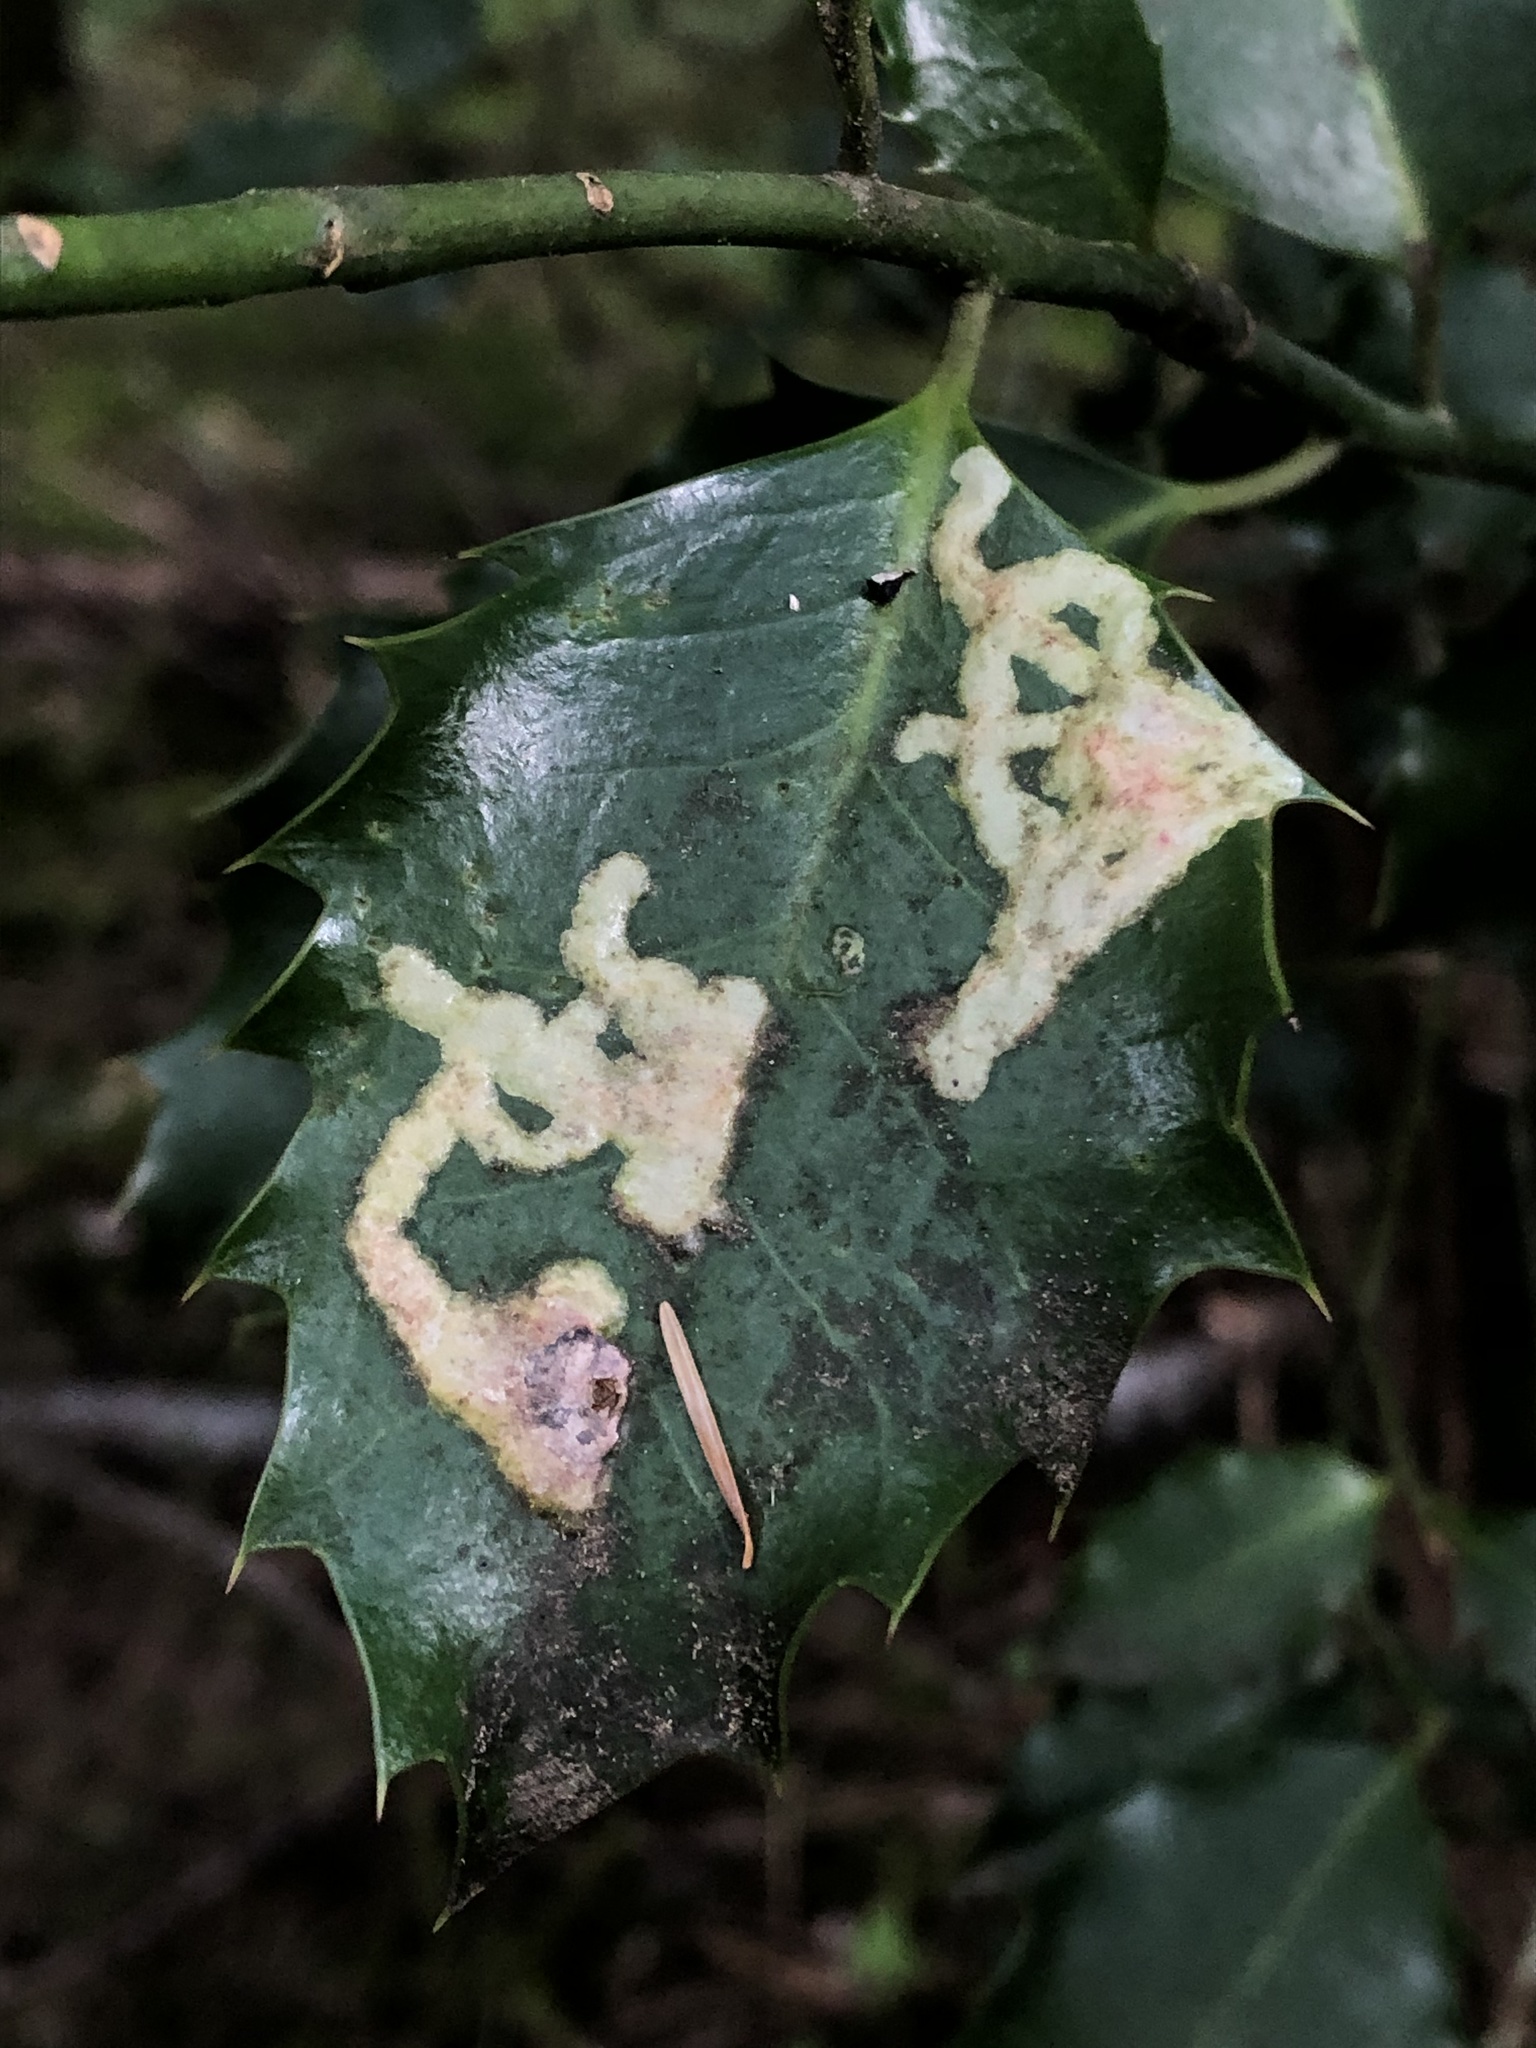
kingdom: Animalia
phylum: Arthropoda
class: Insecta
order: Diptera
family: Agromyzidae
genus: Phytomyza
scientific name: Phytomyza ilicis
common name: Holly leafminer
